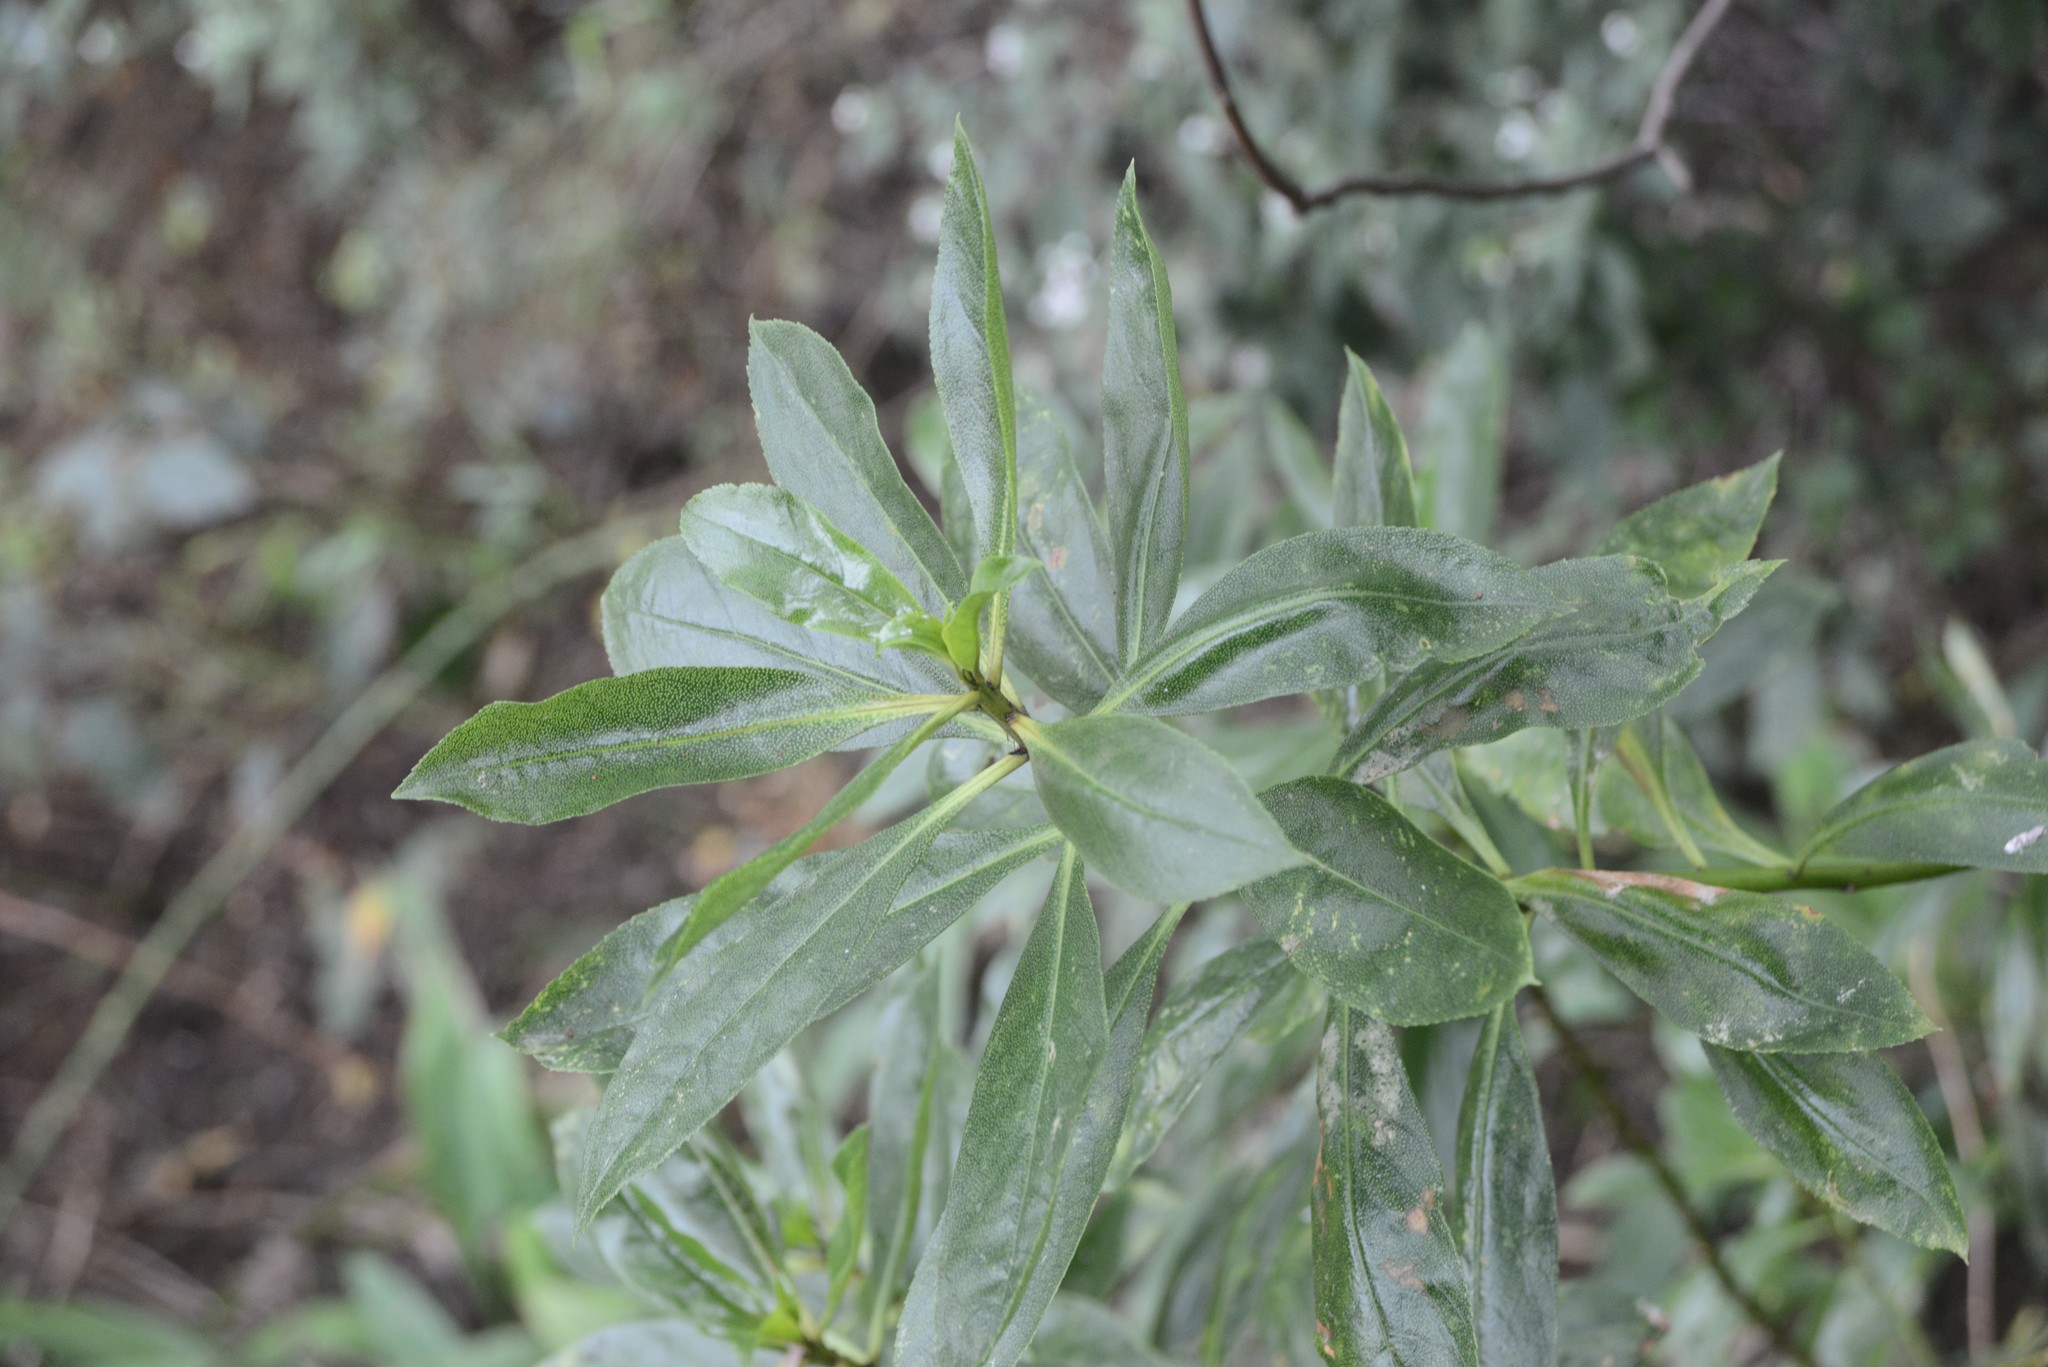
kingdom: Plantae
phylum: Tracheophyta
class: Magnoliopsida
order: Lamiales
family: Scrophulariaceae
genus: Myoporum
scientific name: Myoporum laetum
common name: Ngaio tree
